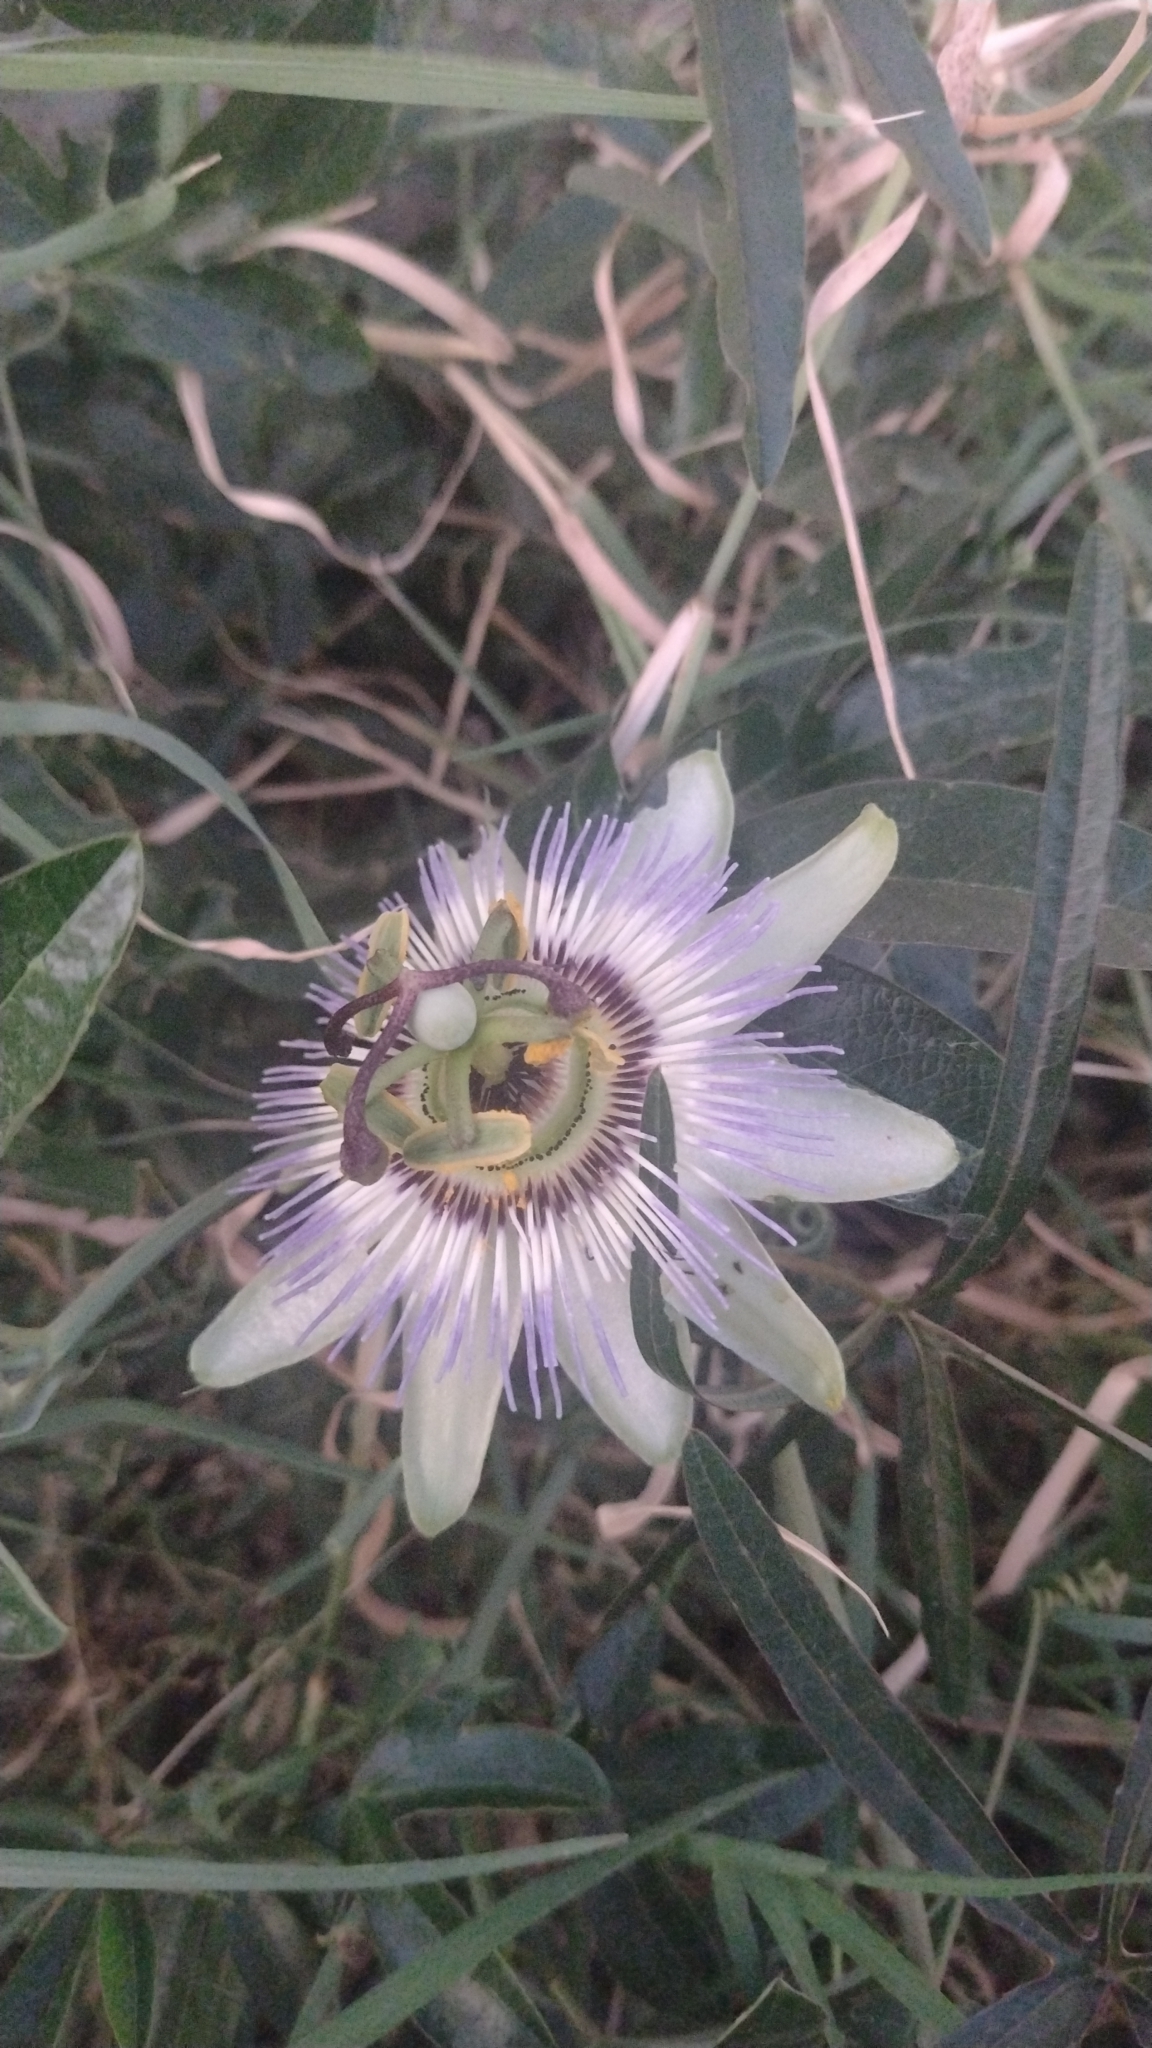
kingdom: Plantae
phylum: Tracheophyta
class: Magnoliopsida
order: Malpighiales
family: Passifloraceae
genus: Passiflora
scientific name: Passiflora caerulea
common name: Blue passionflower
